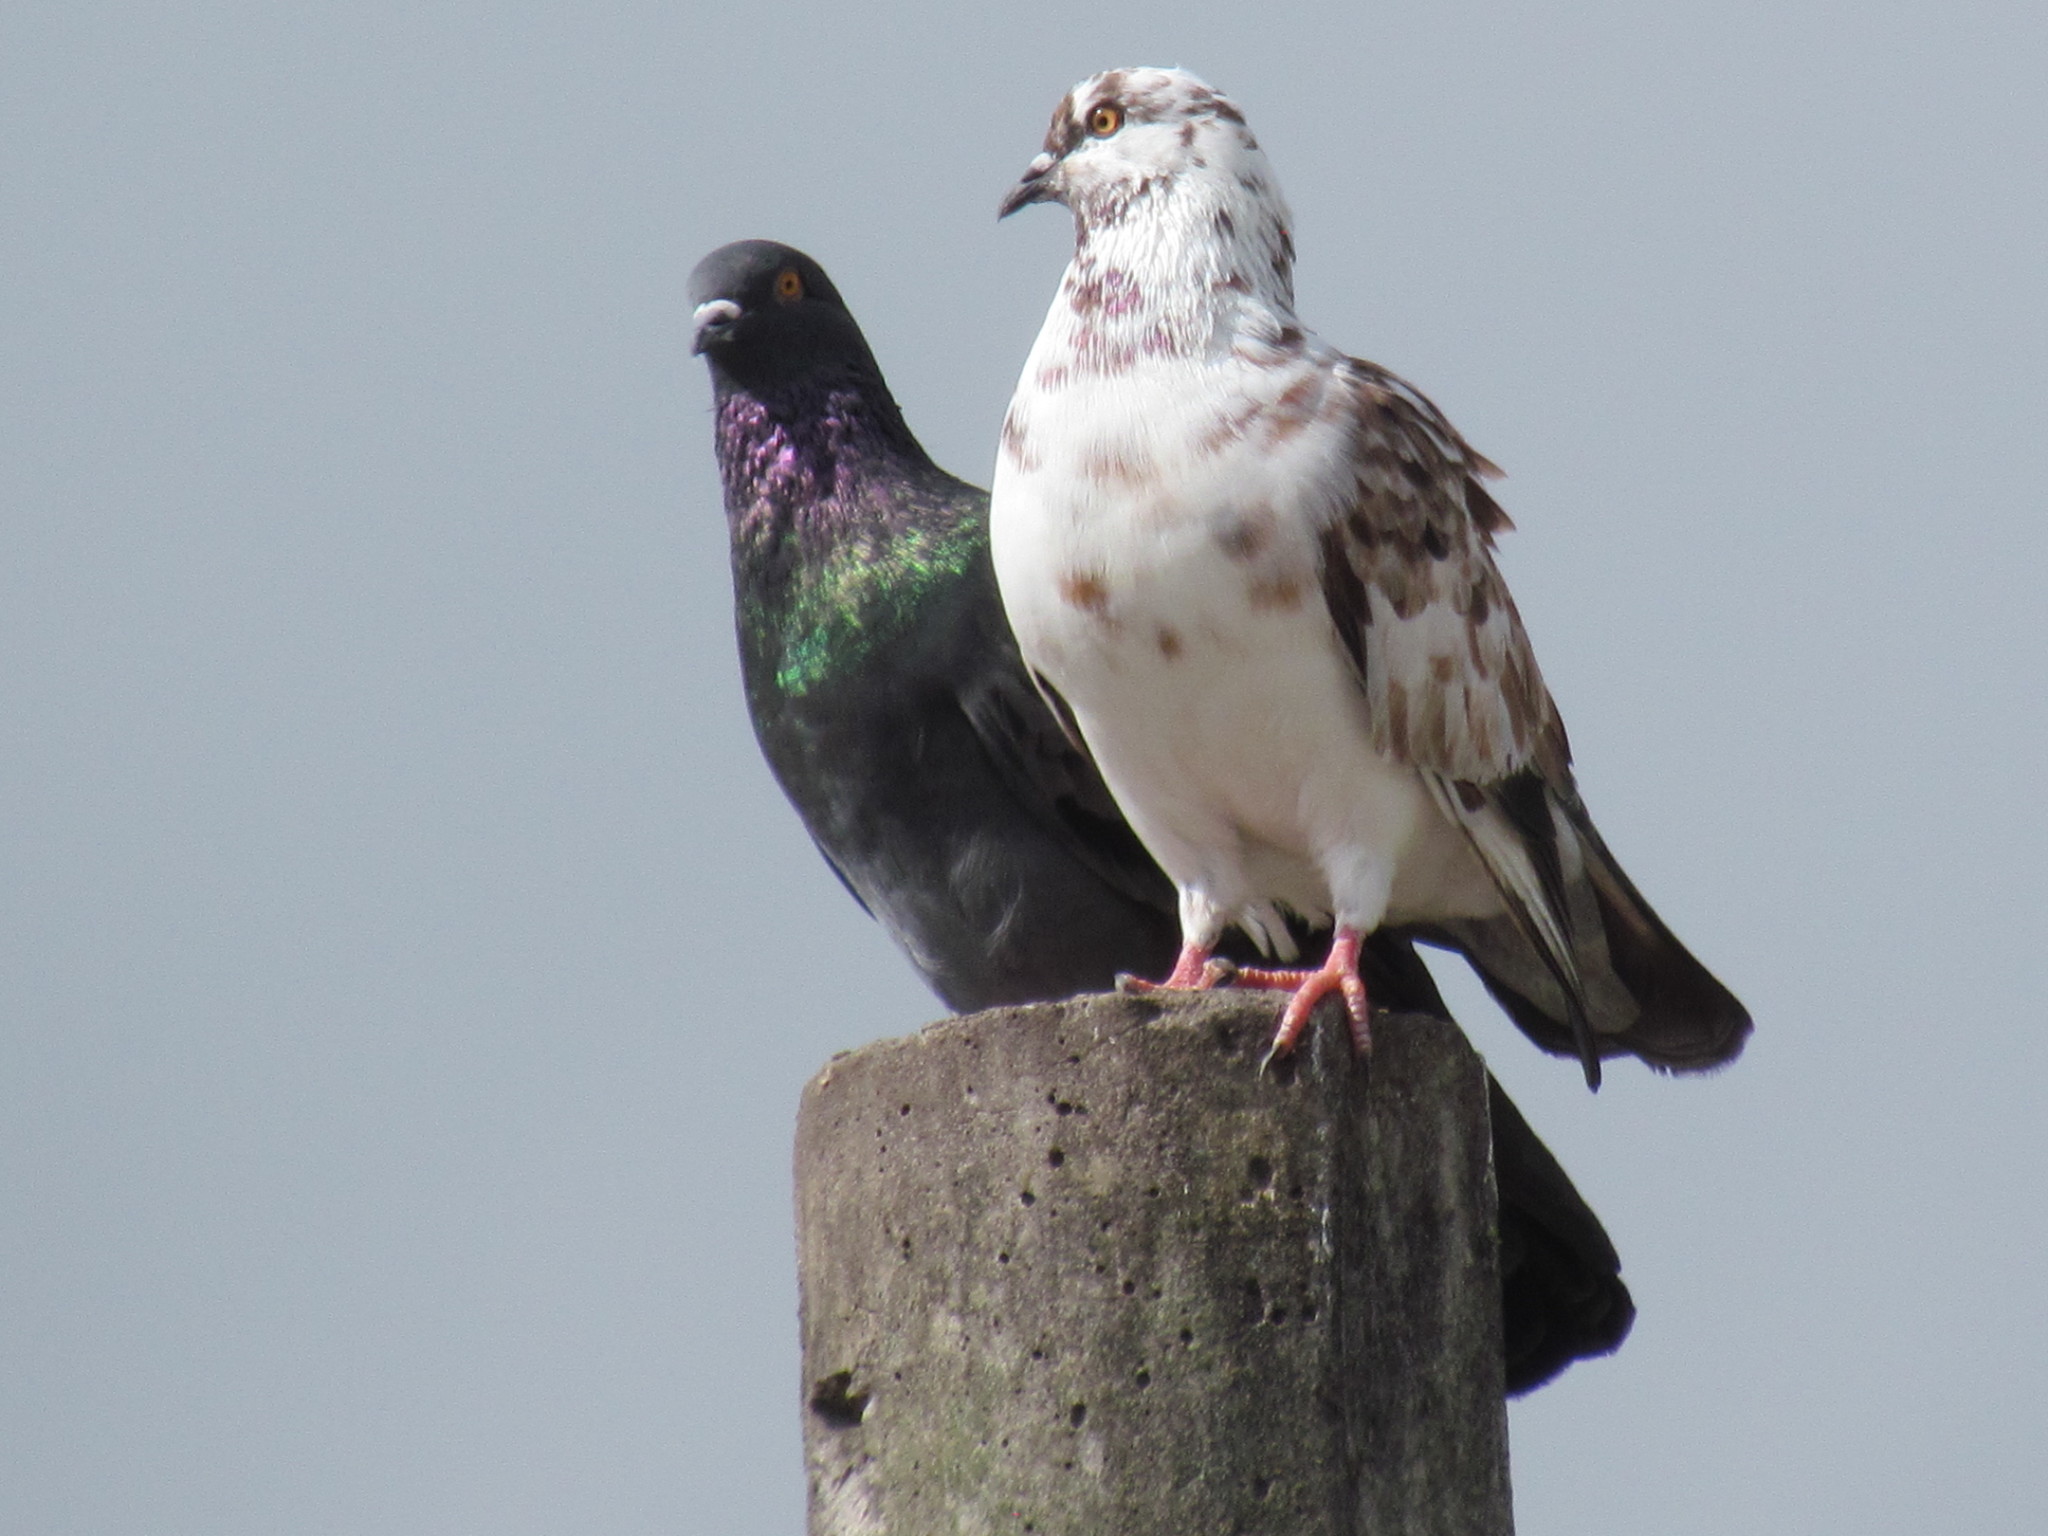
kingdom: Animalia
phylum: Chordata
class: Aves
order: Columbiformes
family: Columbidae
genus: Columba
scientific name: Columba livia
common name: Rock pigeon
